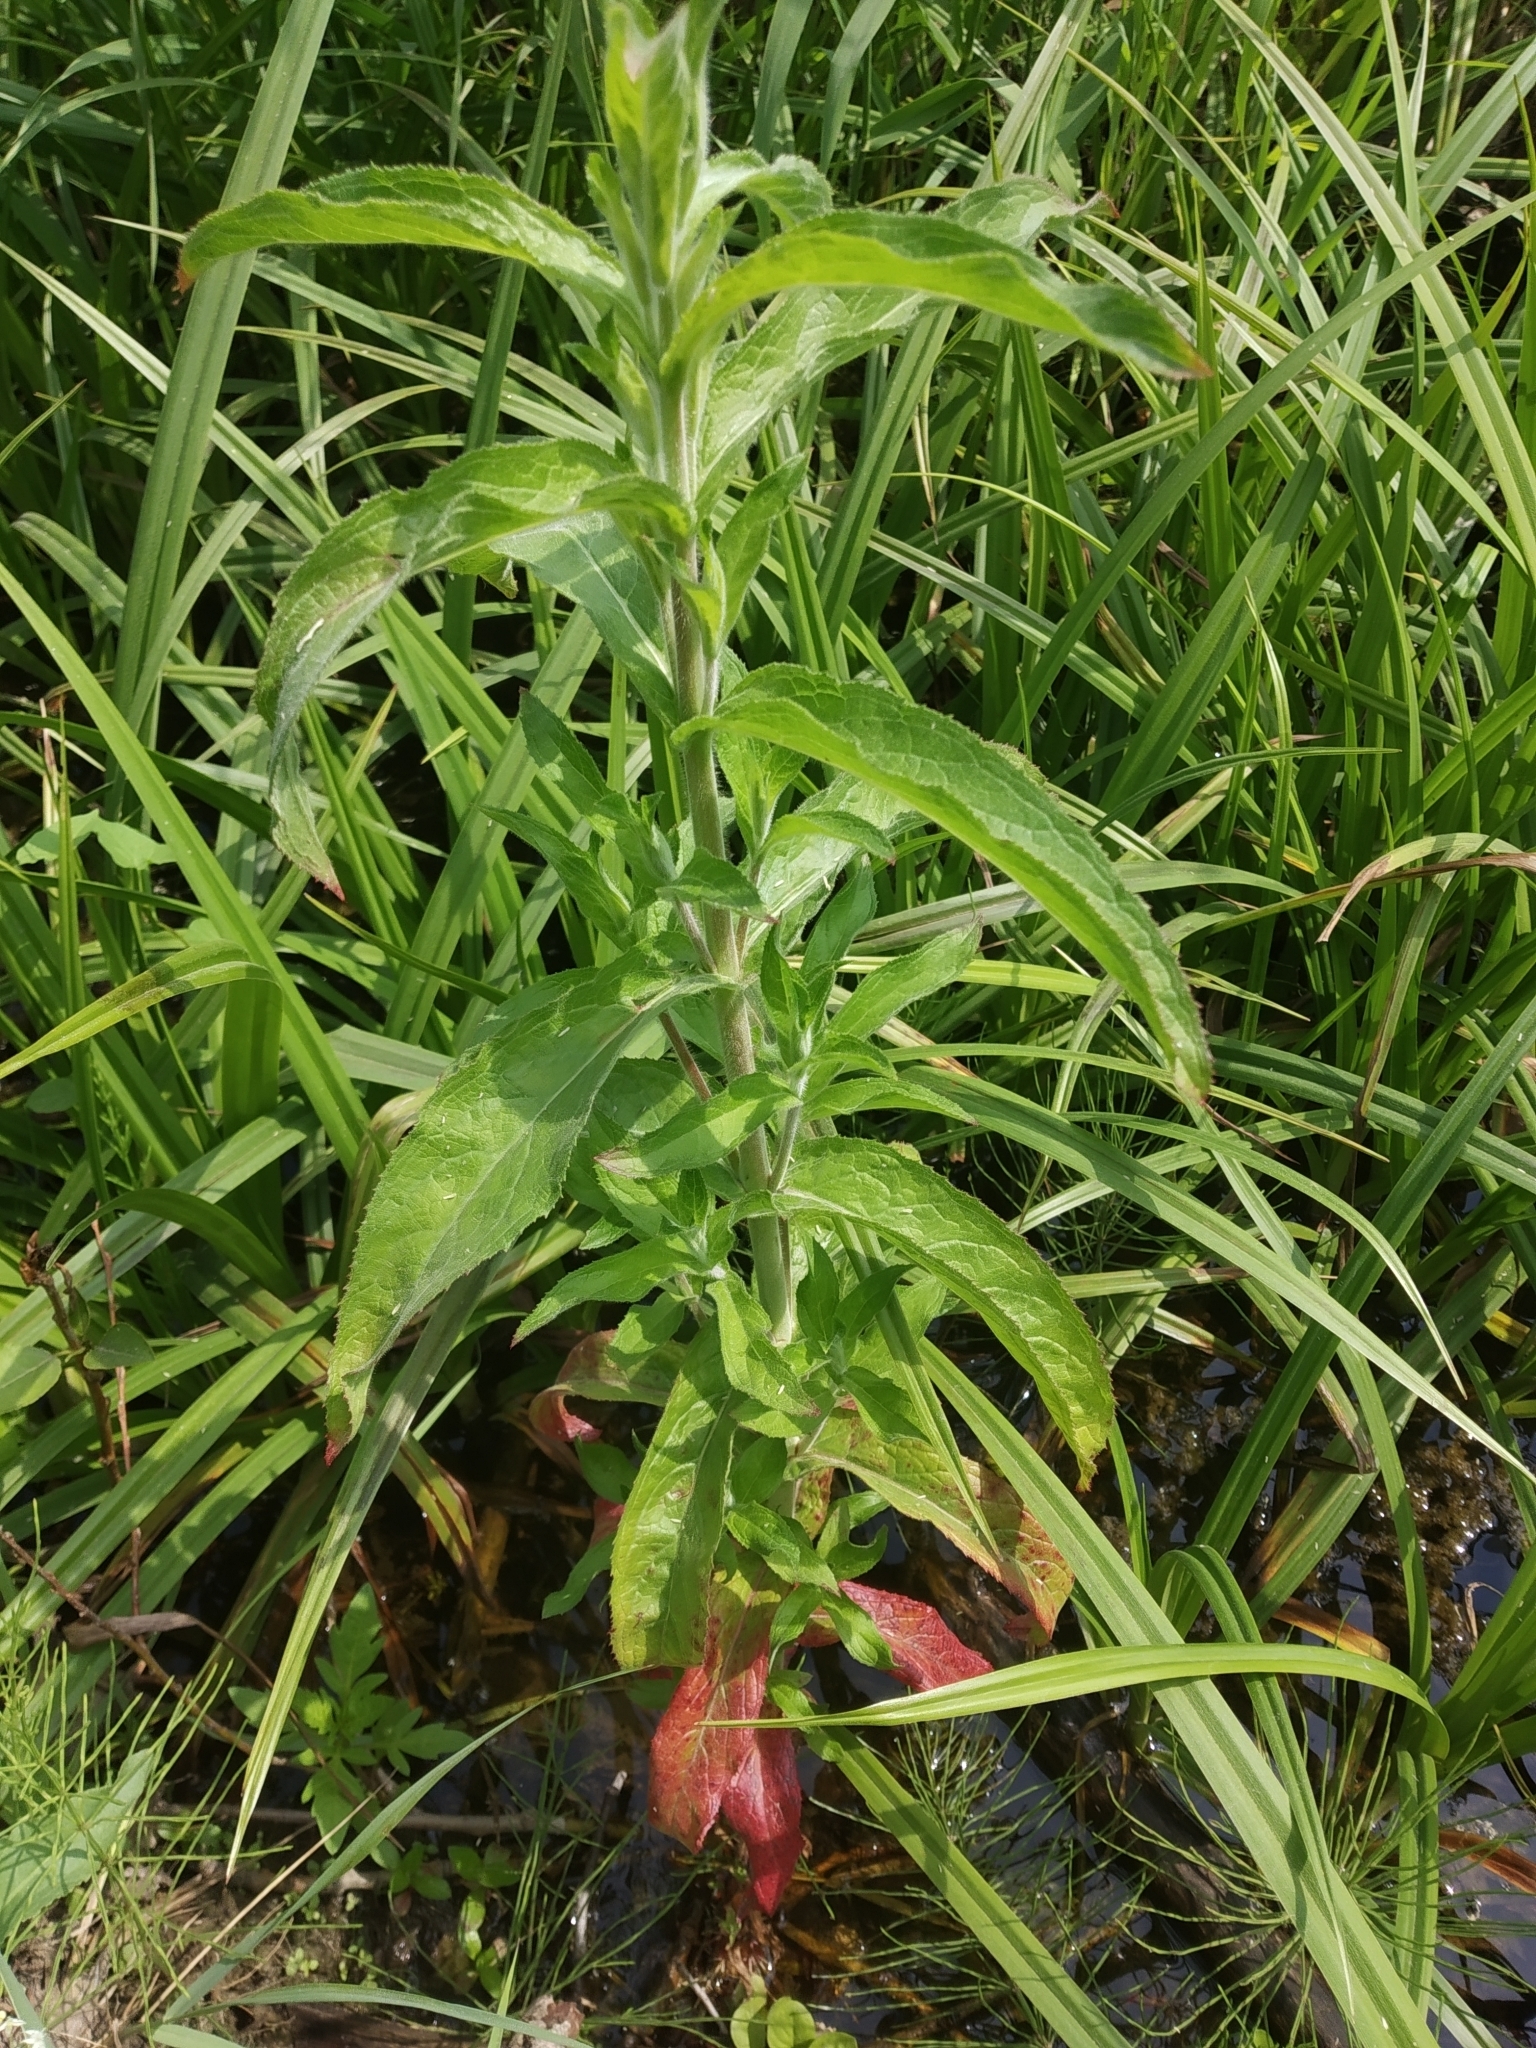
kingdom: Plantae
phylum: Tracheophyta
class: Magnoliopsida
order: Myrtales
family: Onagraceae
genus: Epilobium
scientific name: Epilobium hirsutum
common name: Great willowherb
